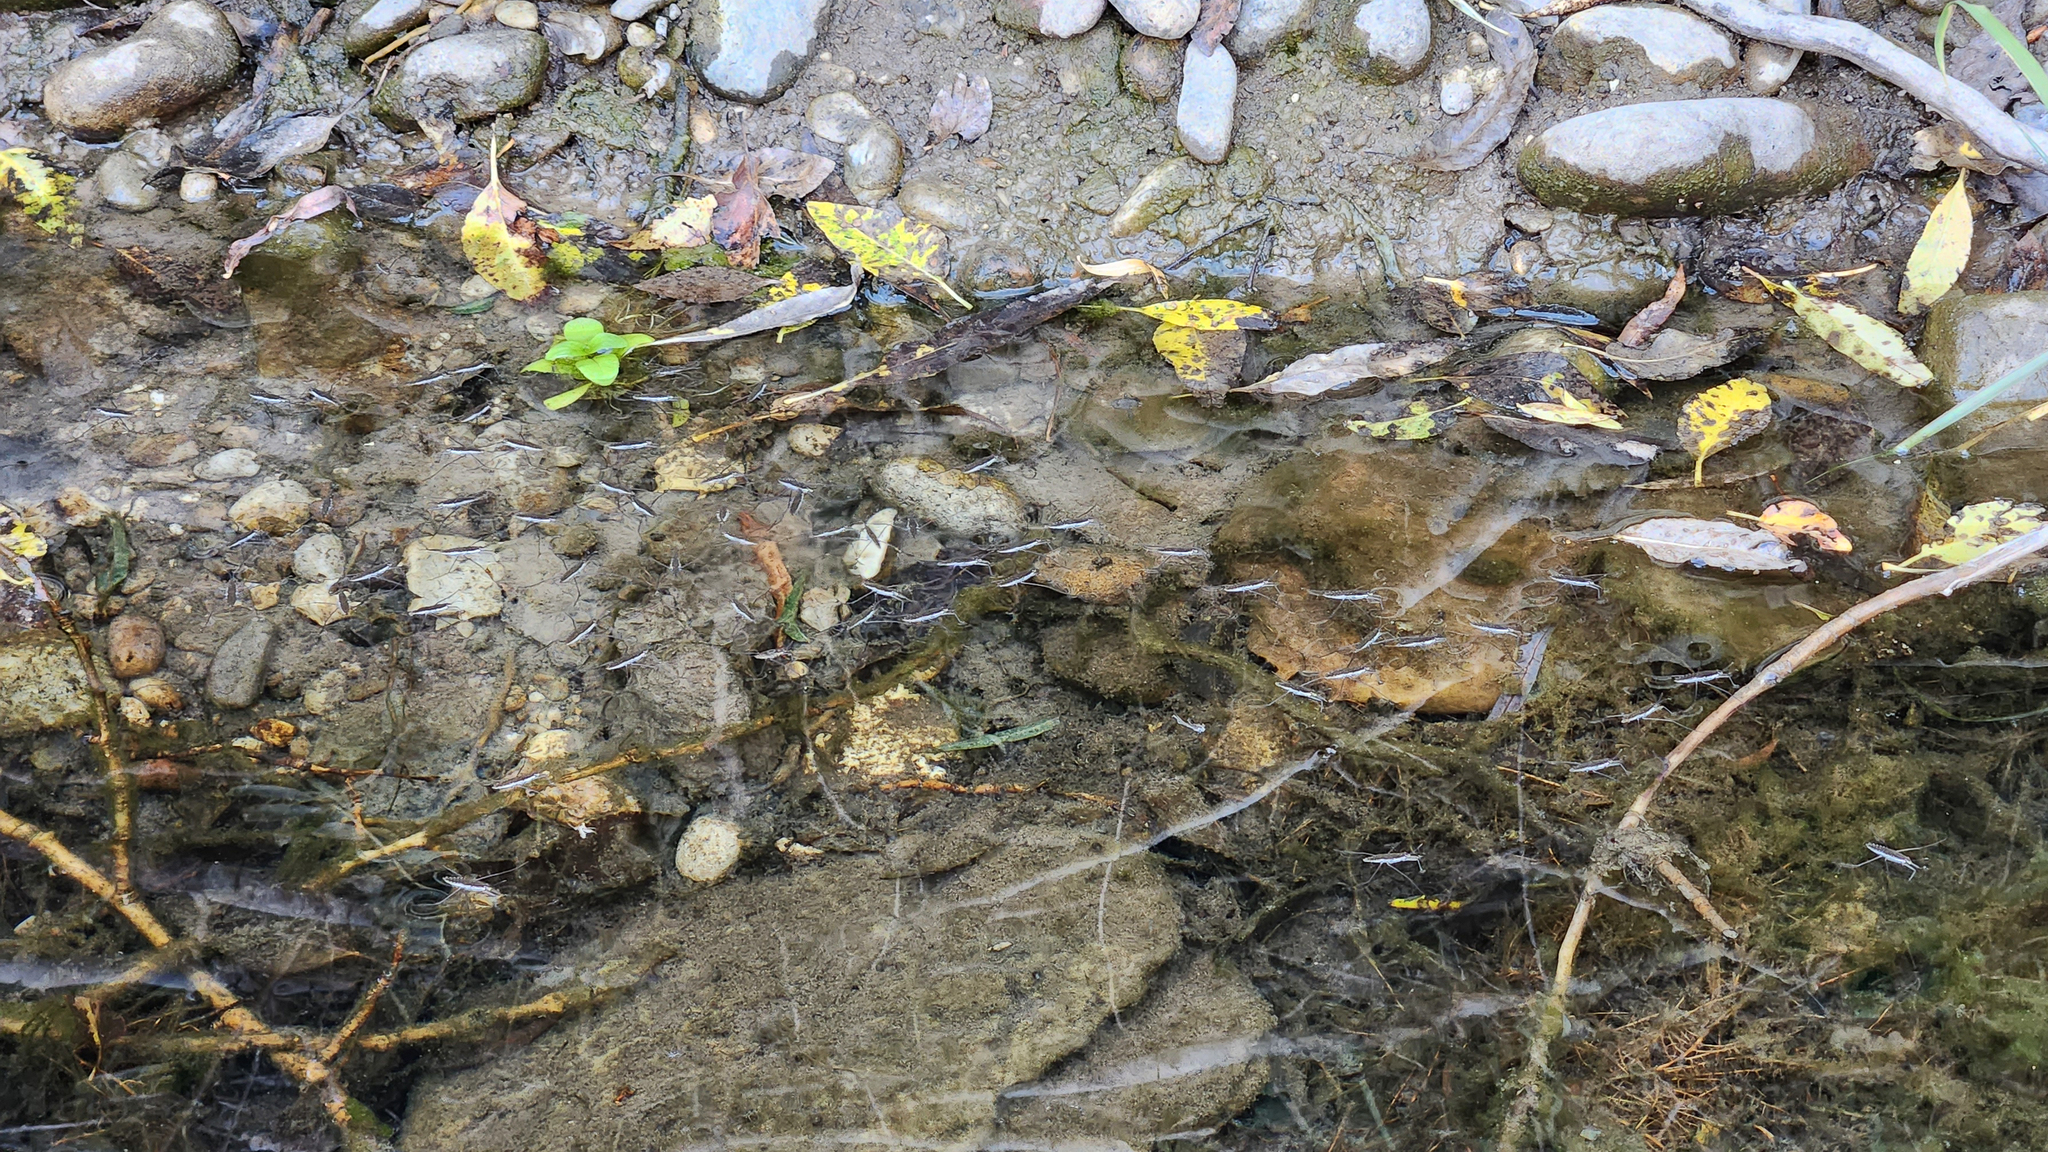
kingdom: Animalia
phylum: Arthropoda
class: Insecta
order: Hemiptera
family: Gerridae
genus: Aquarius
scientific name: Aquarius remigis
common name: Common water strider
